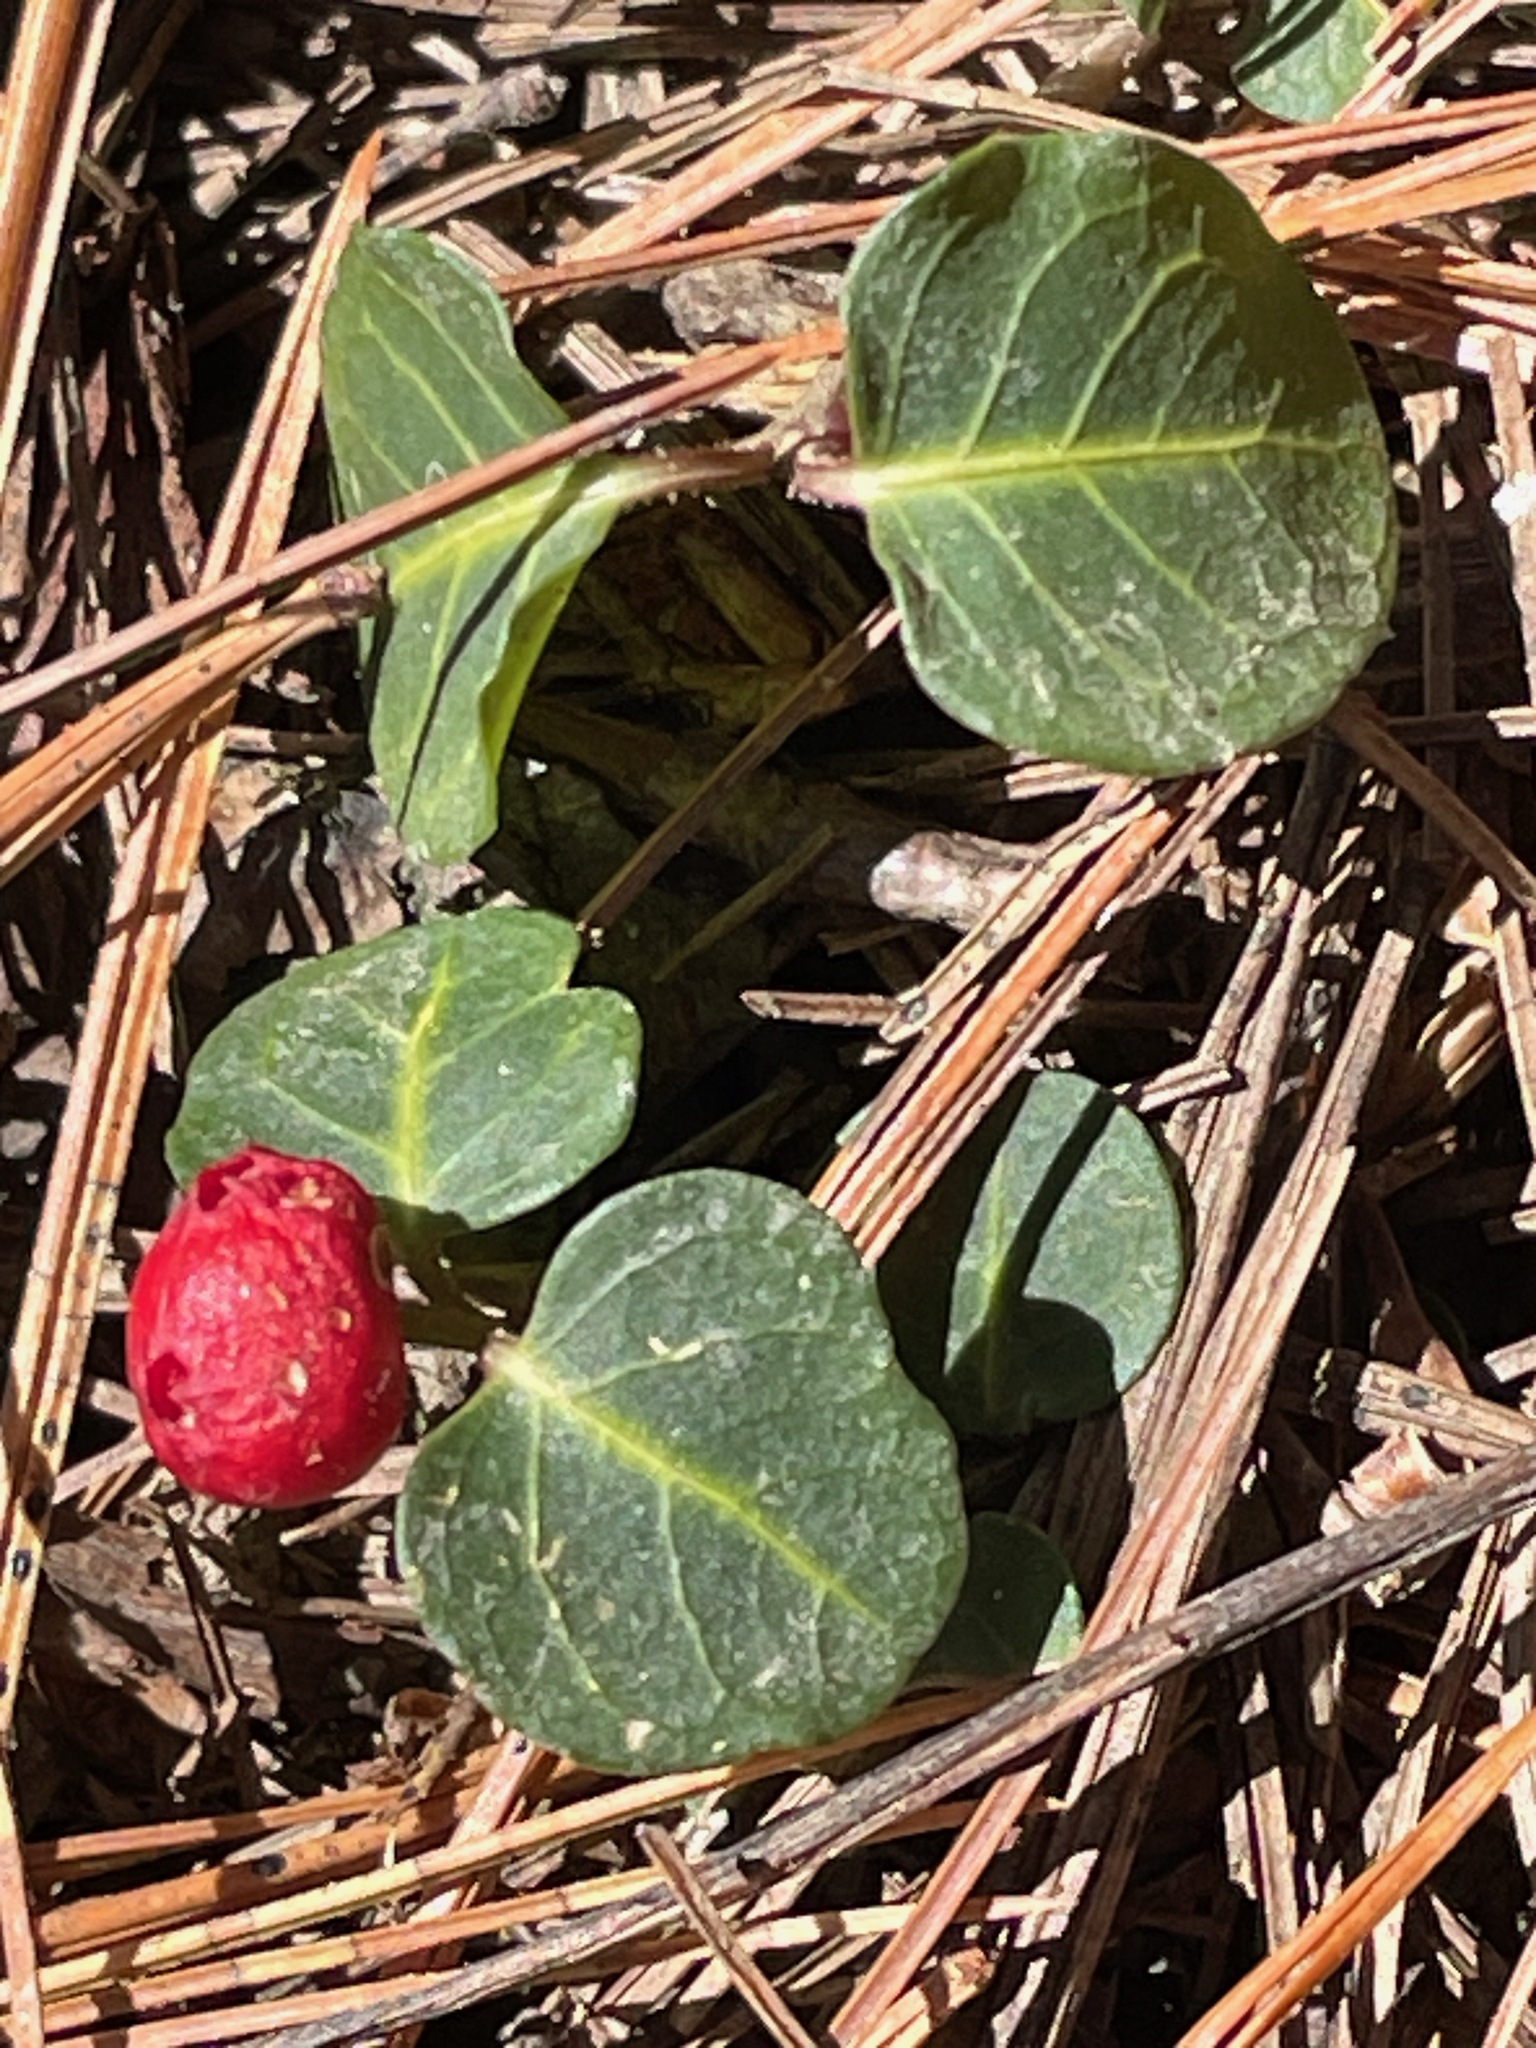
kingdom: Plantae
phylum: Tracheophyta
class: Magnoliopsida
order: Gentianales
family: Rubiaceae
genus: Mitchella
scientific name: Mitchella repens
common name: Partridge-berry
